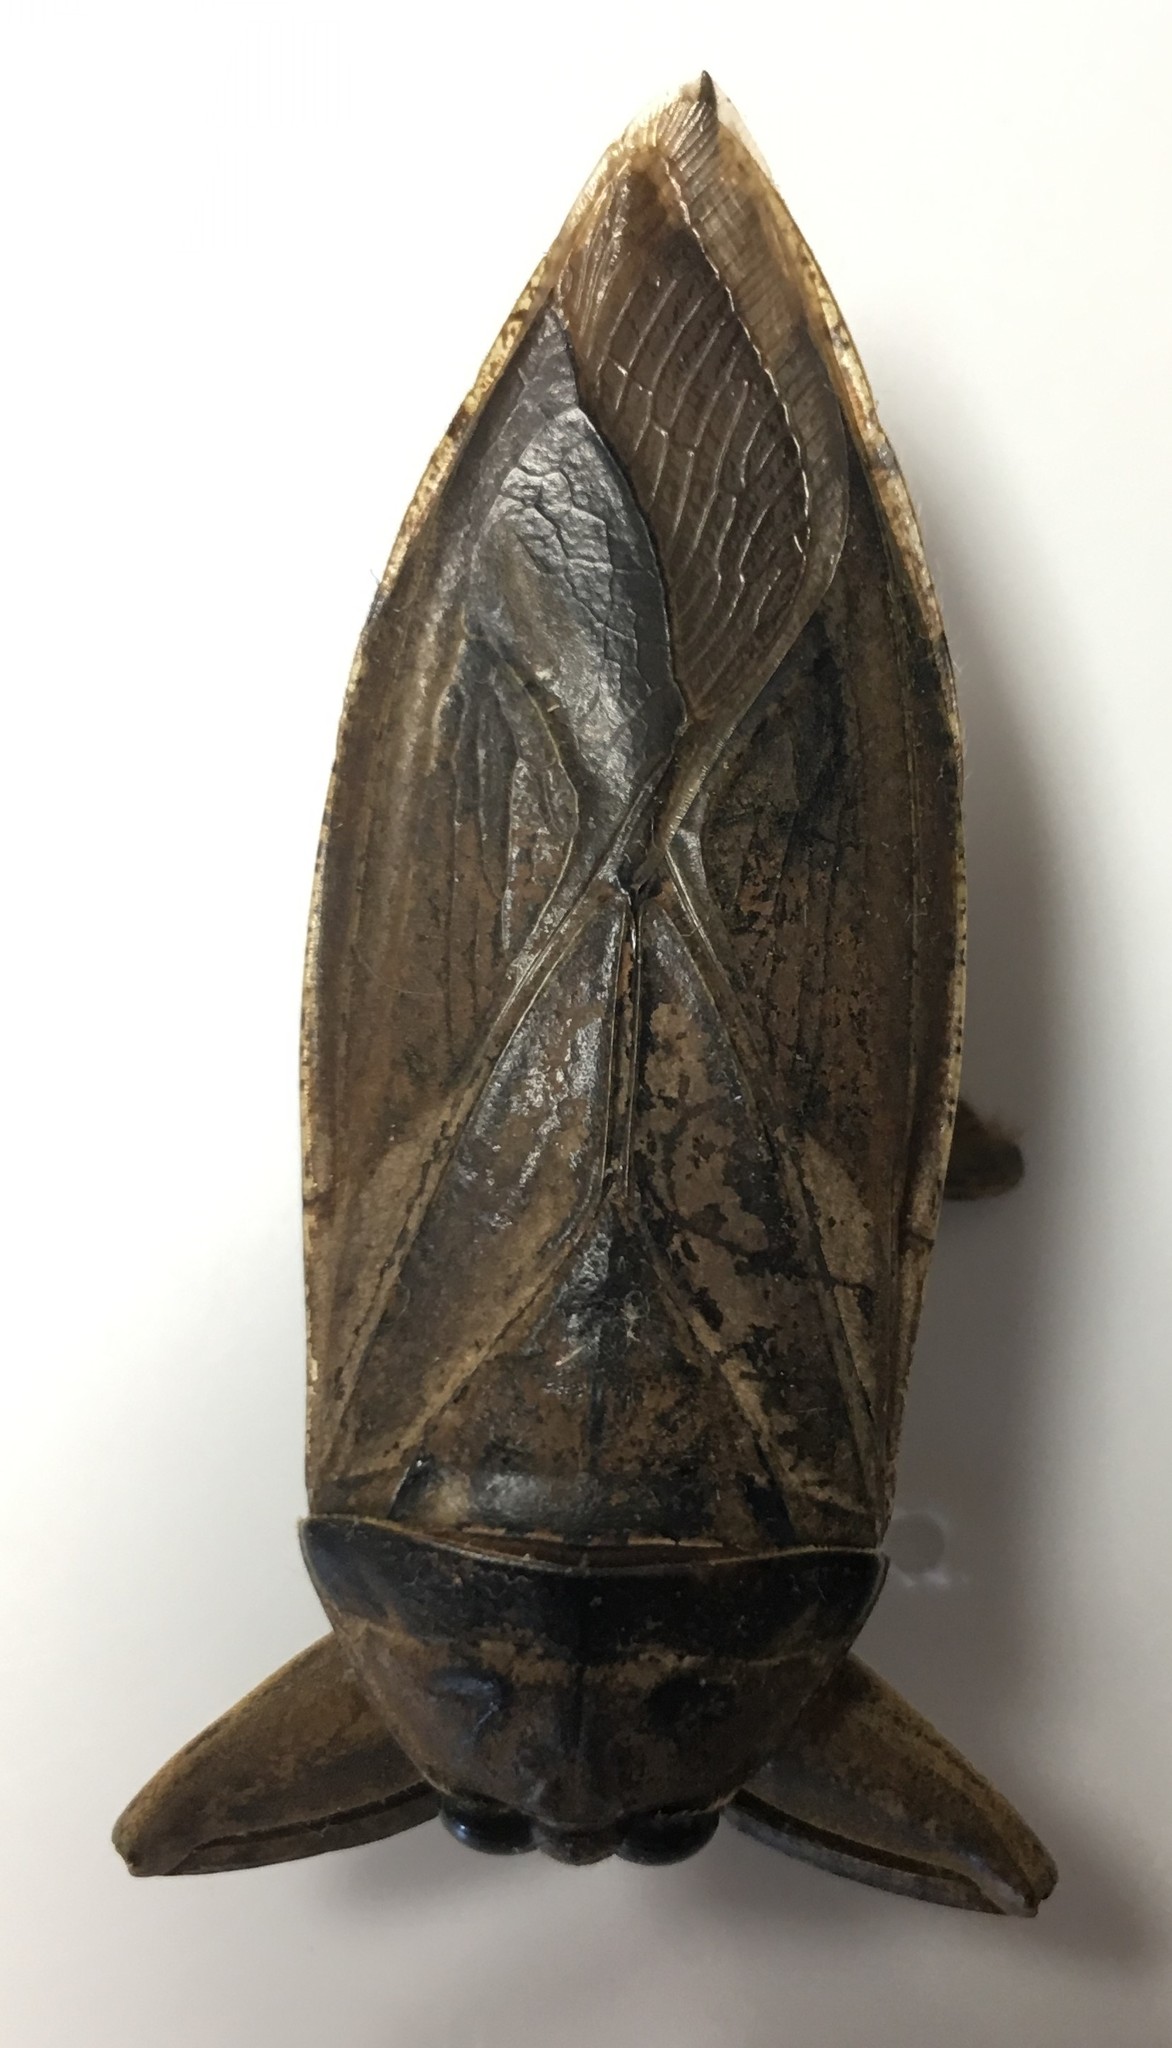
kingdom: Animalia
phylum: Arthropoda
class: Insecta
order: Hemiptera
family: Belostomatidae
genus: Lethocerus
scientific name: Lethocerus uhleri
